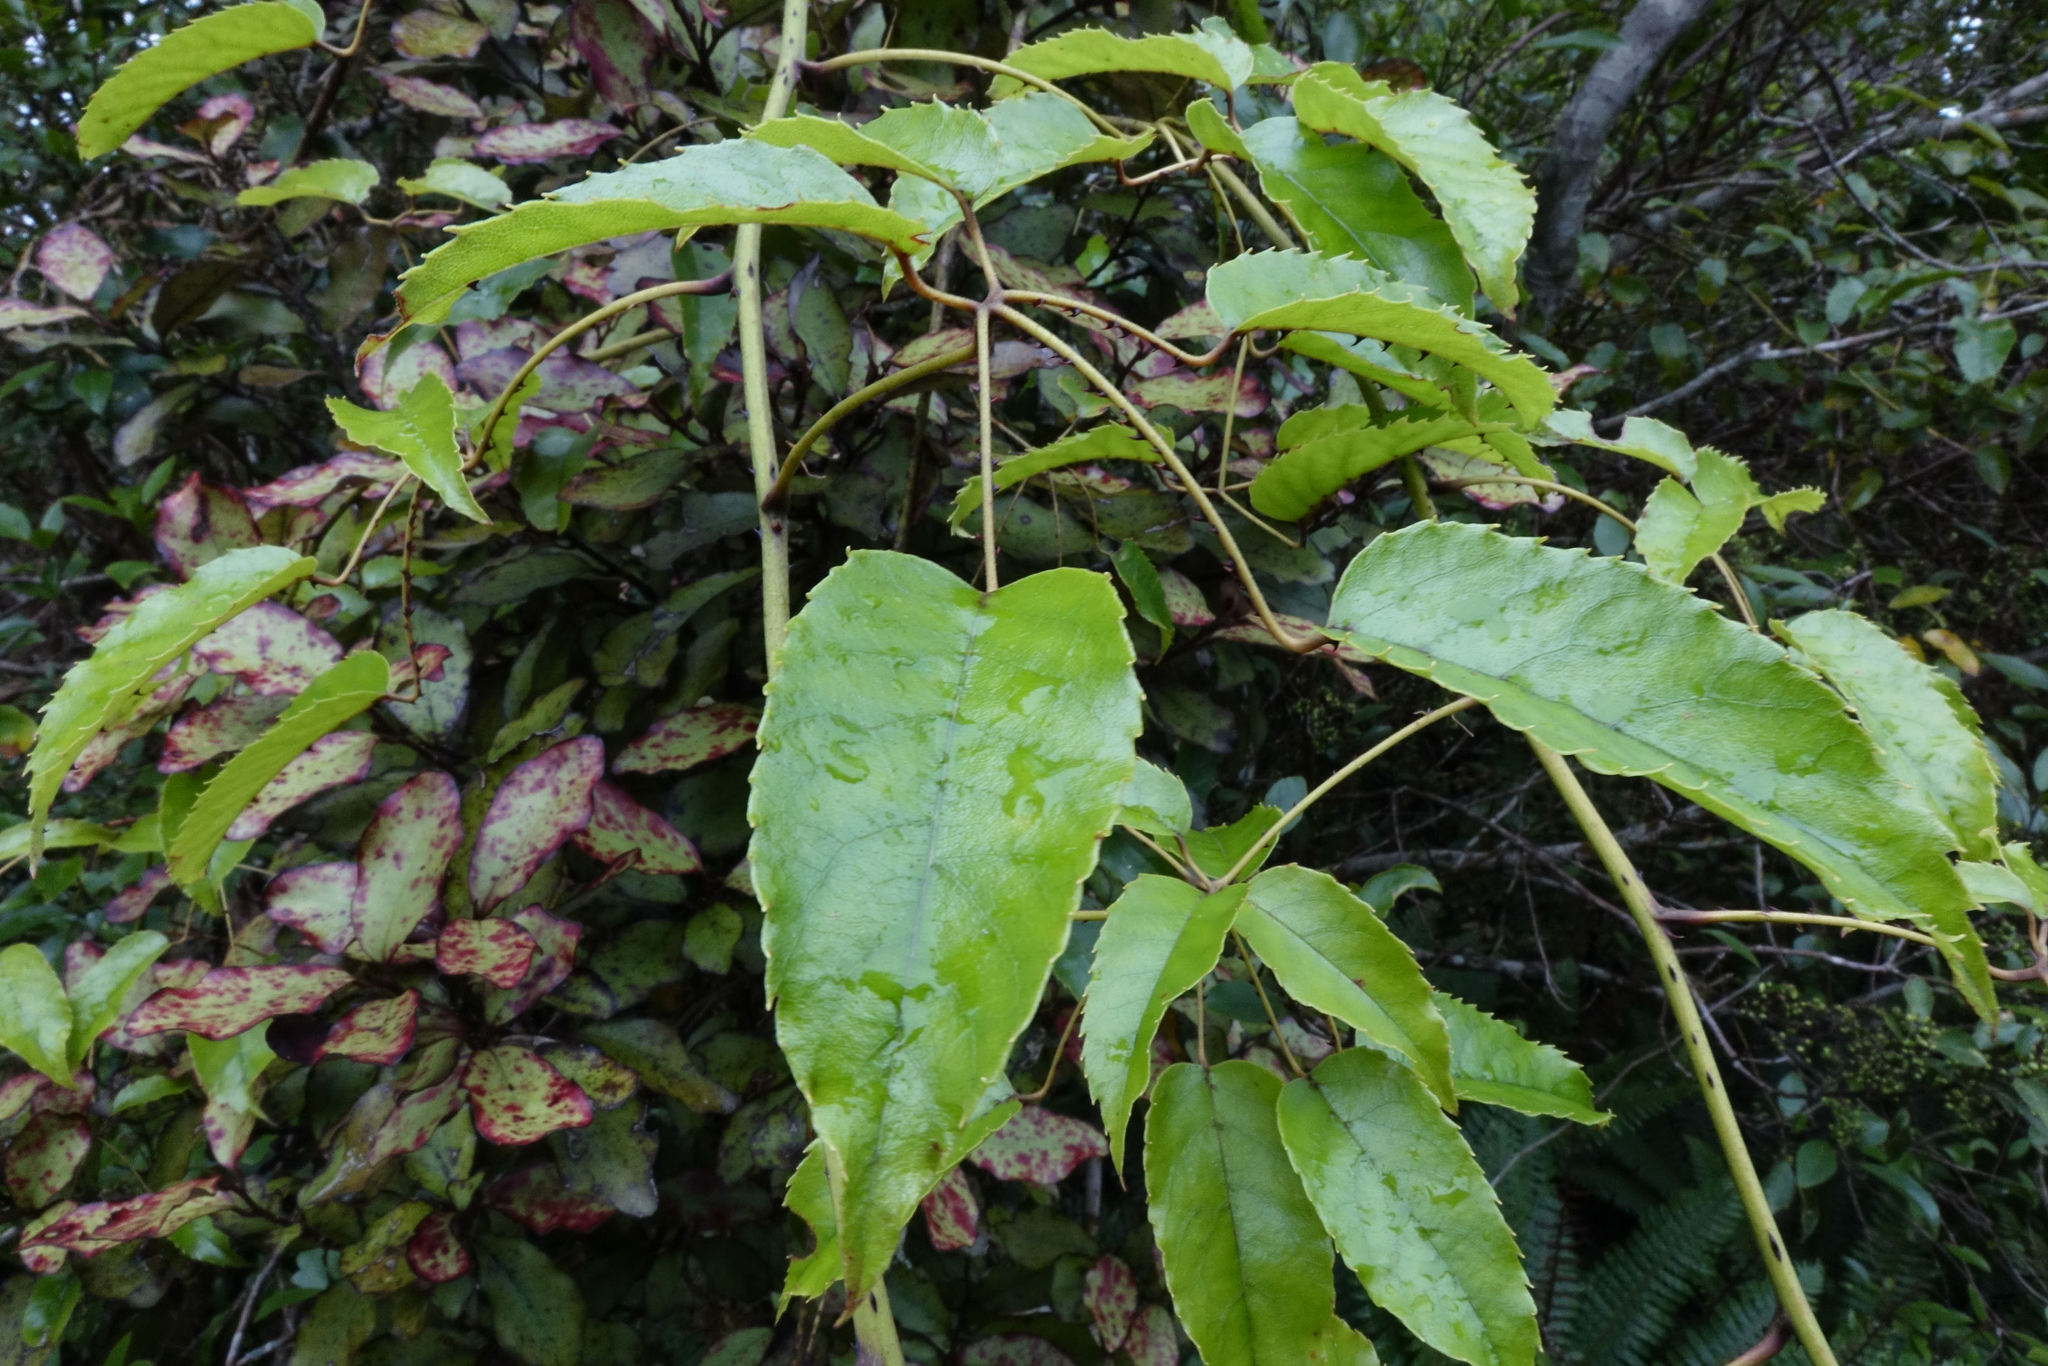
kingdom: Plantae
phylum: Tracheophyta
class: Magnoliopsida
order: Rosales
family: Rosaceae
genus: Rubus
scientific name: Rubus cissoides
